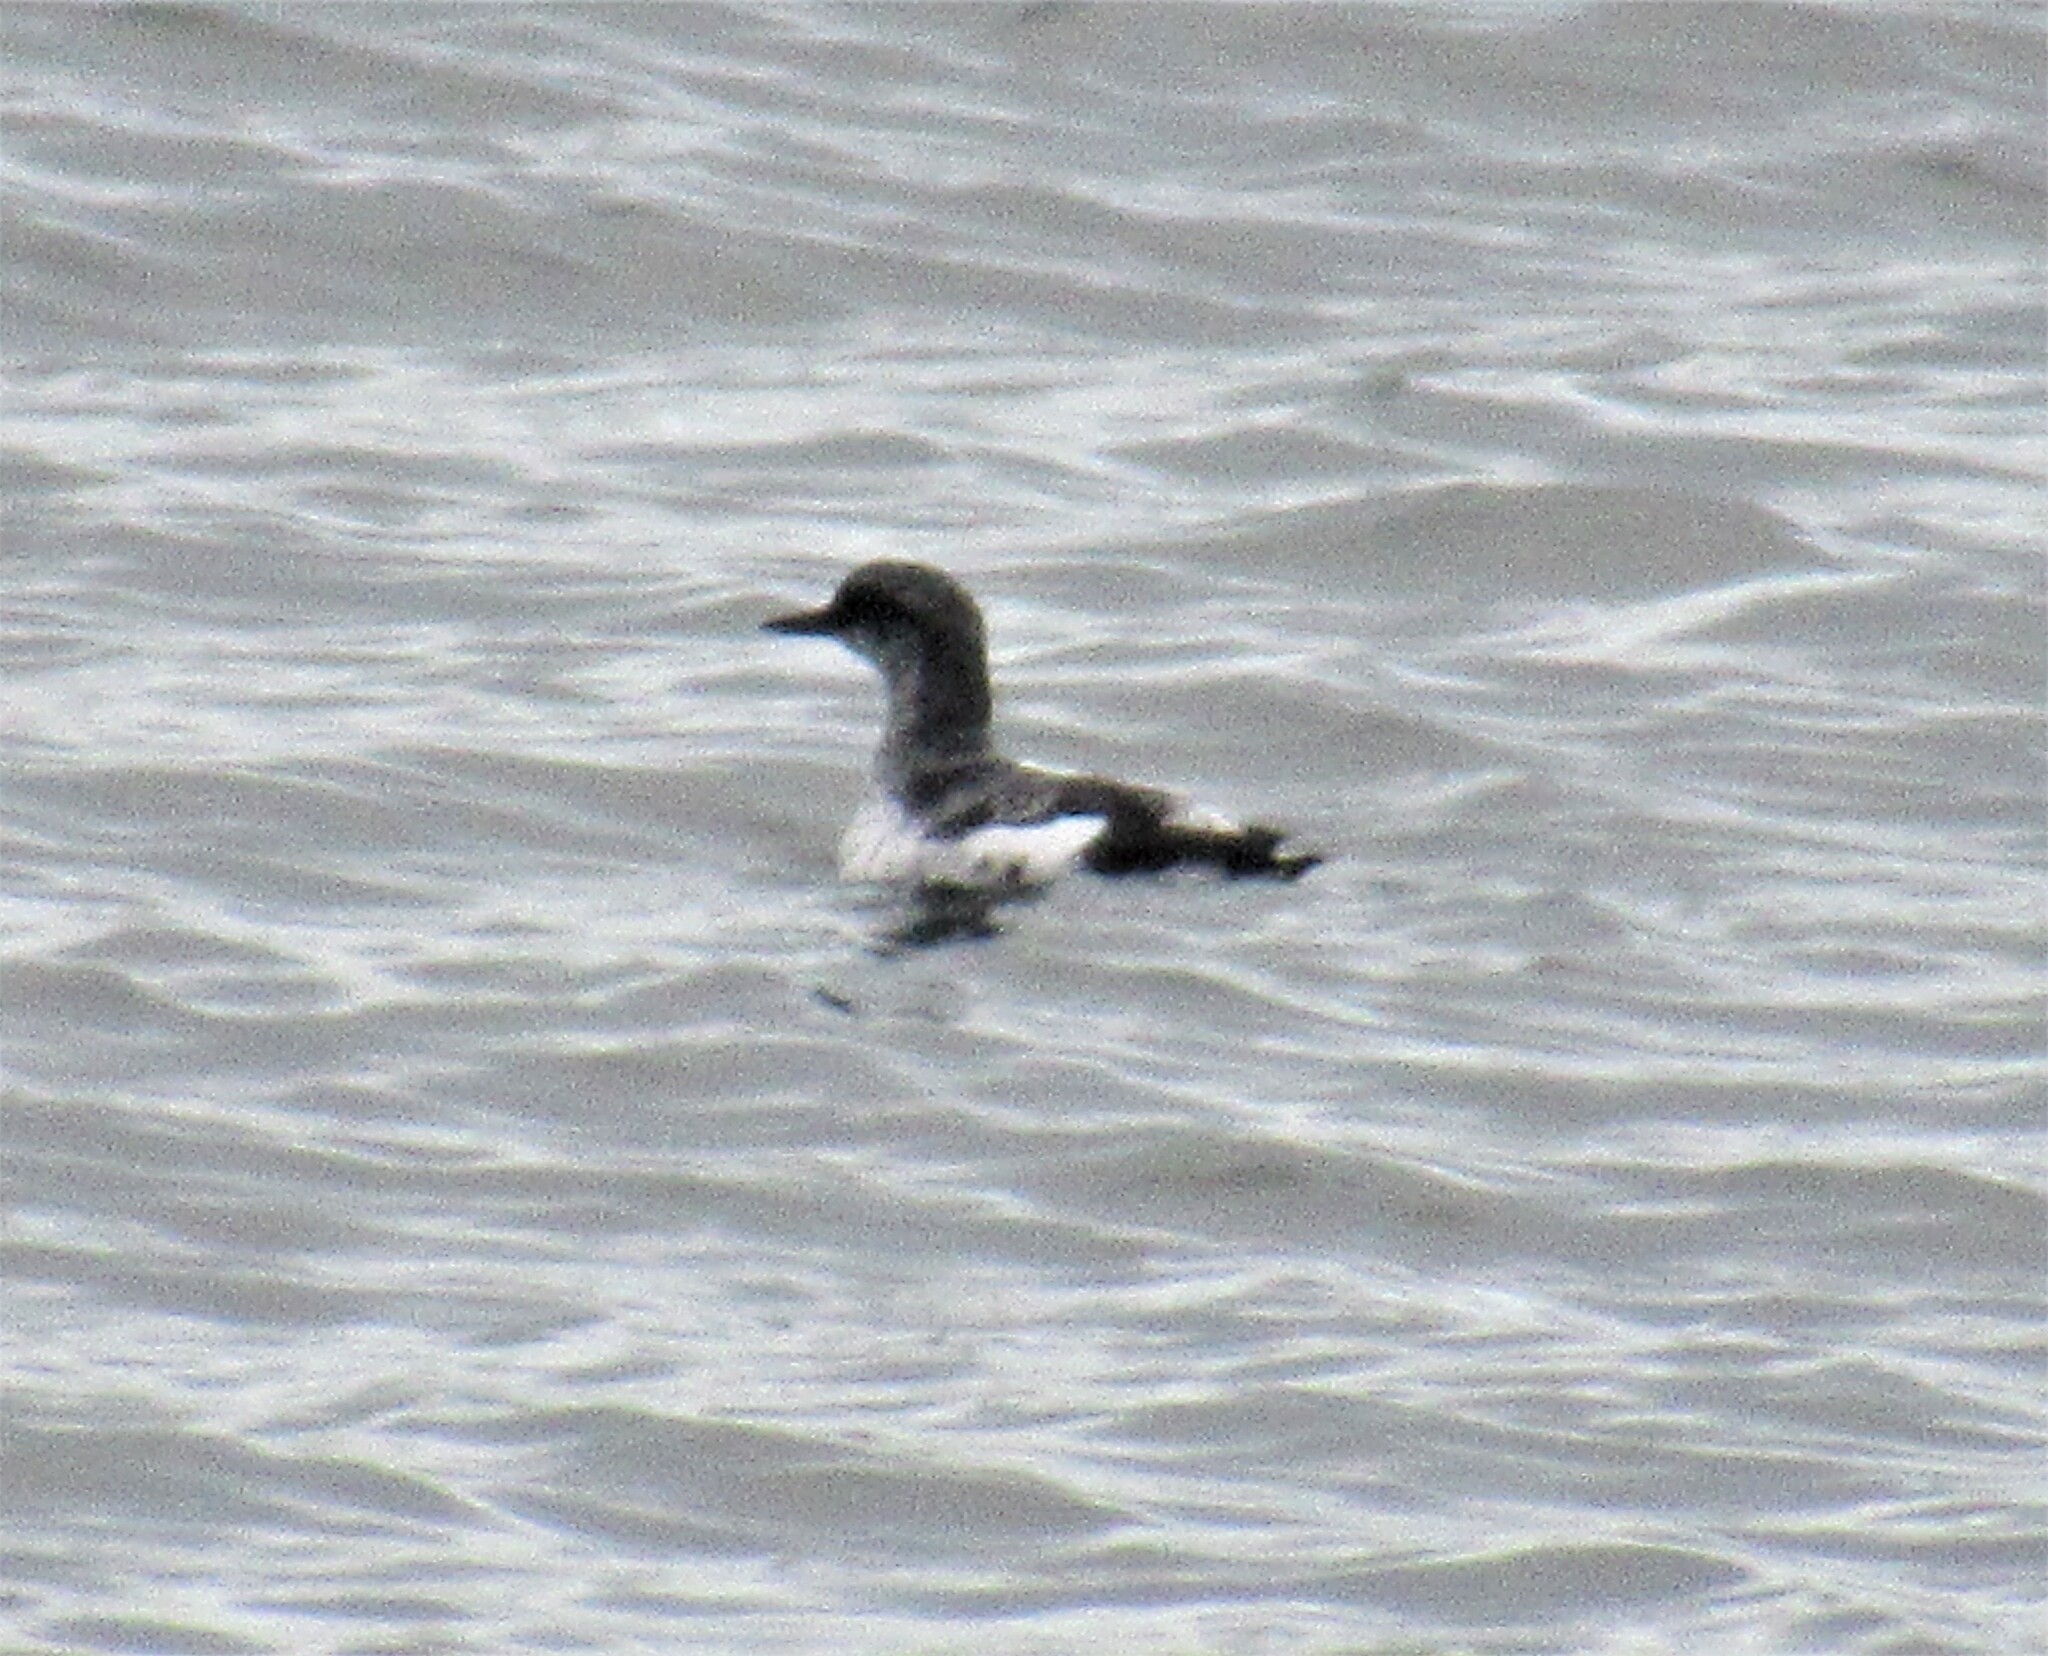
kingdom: Animalia
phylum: Chordata
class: Aves
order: Charadriiformes
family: Alcidae
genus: Cepphus
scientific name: Cepphus columba
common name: Pigeon guillemot
